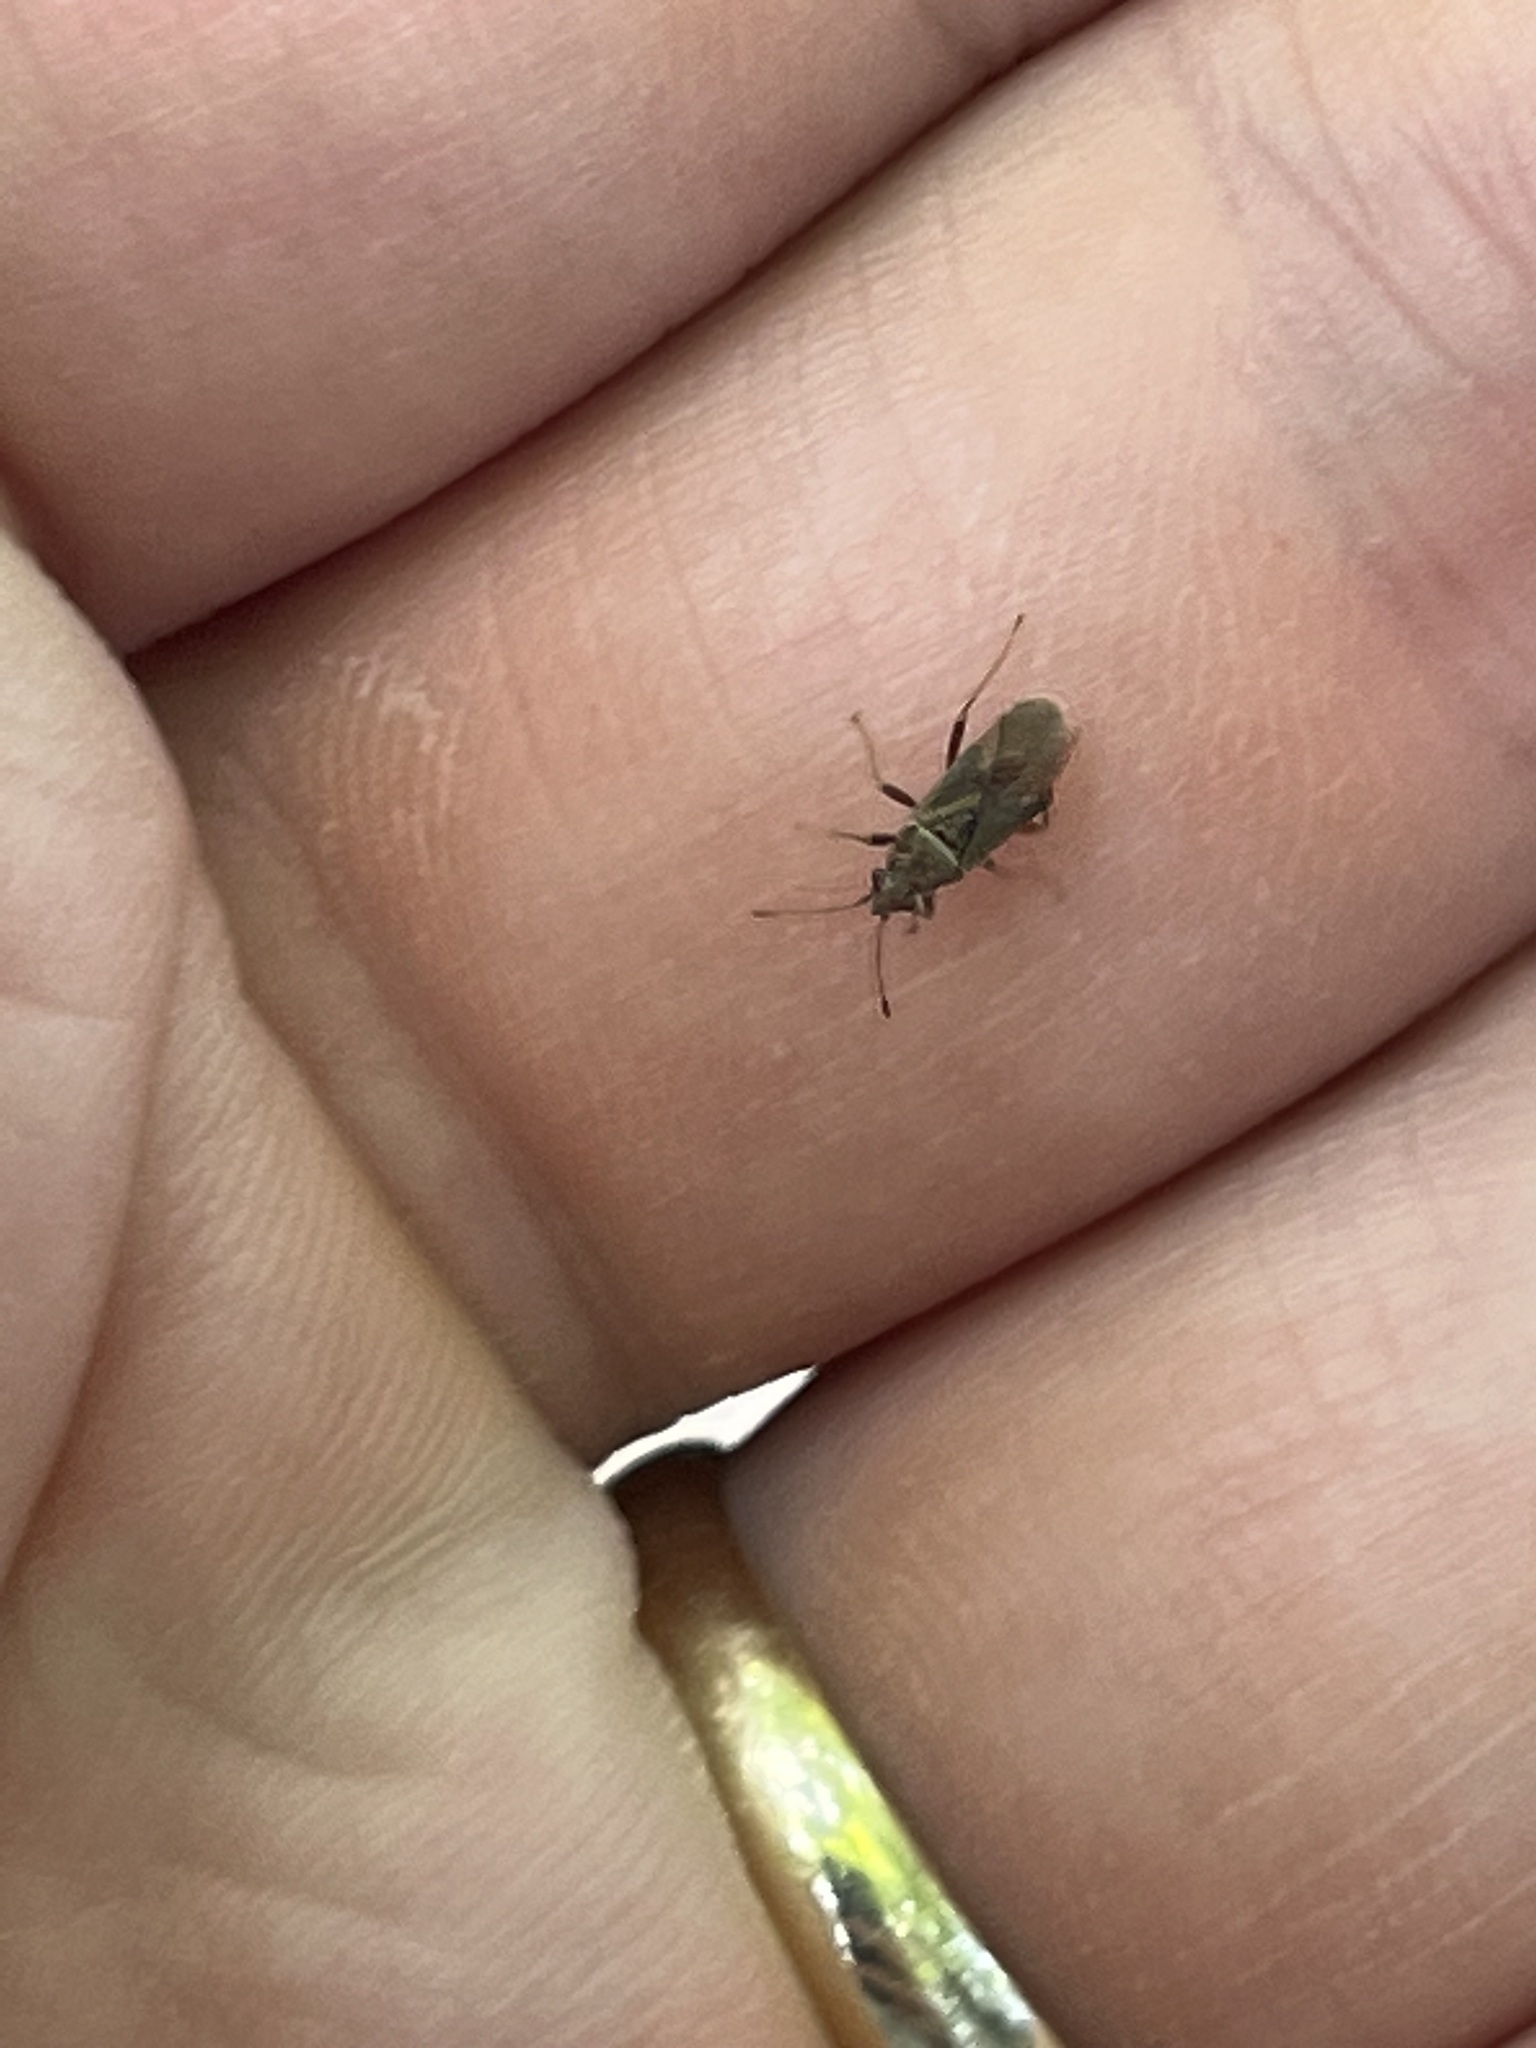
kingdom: Animalia
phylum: Arthropoda
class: Insecta
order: Hemiptera
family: Lygaeidae
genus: Arocatus
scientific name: Arocatus
